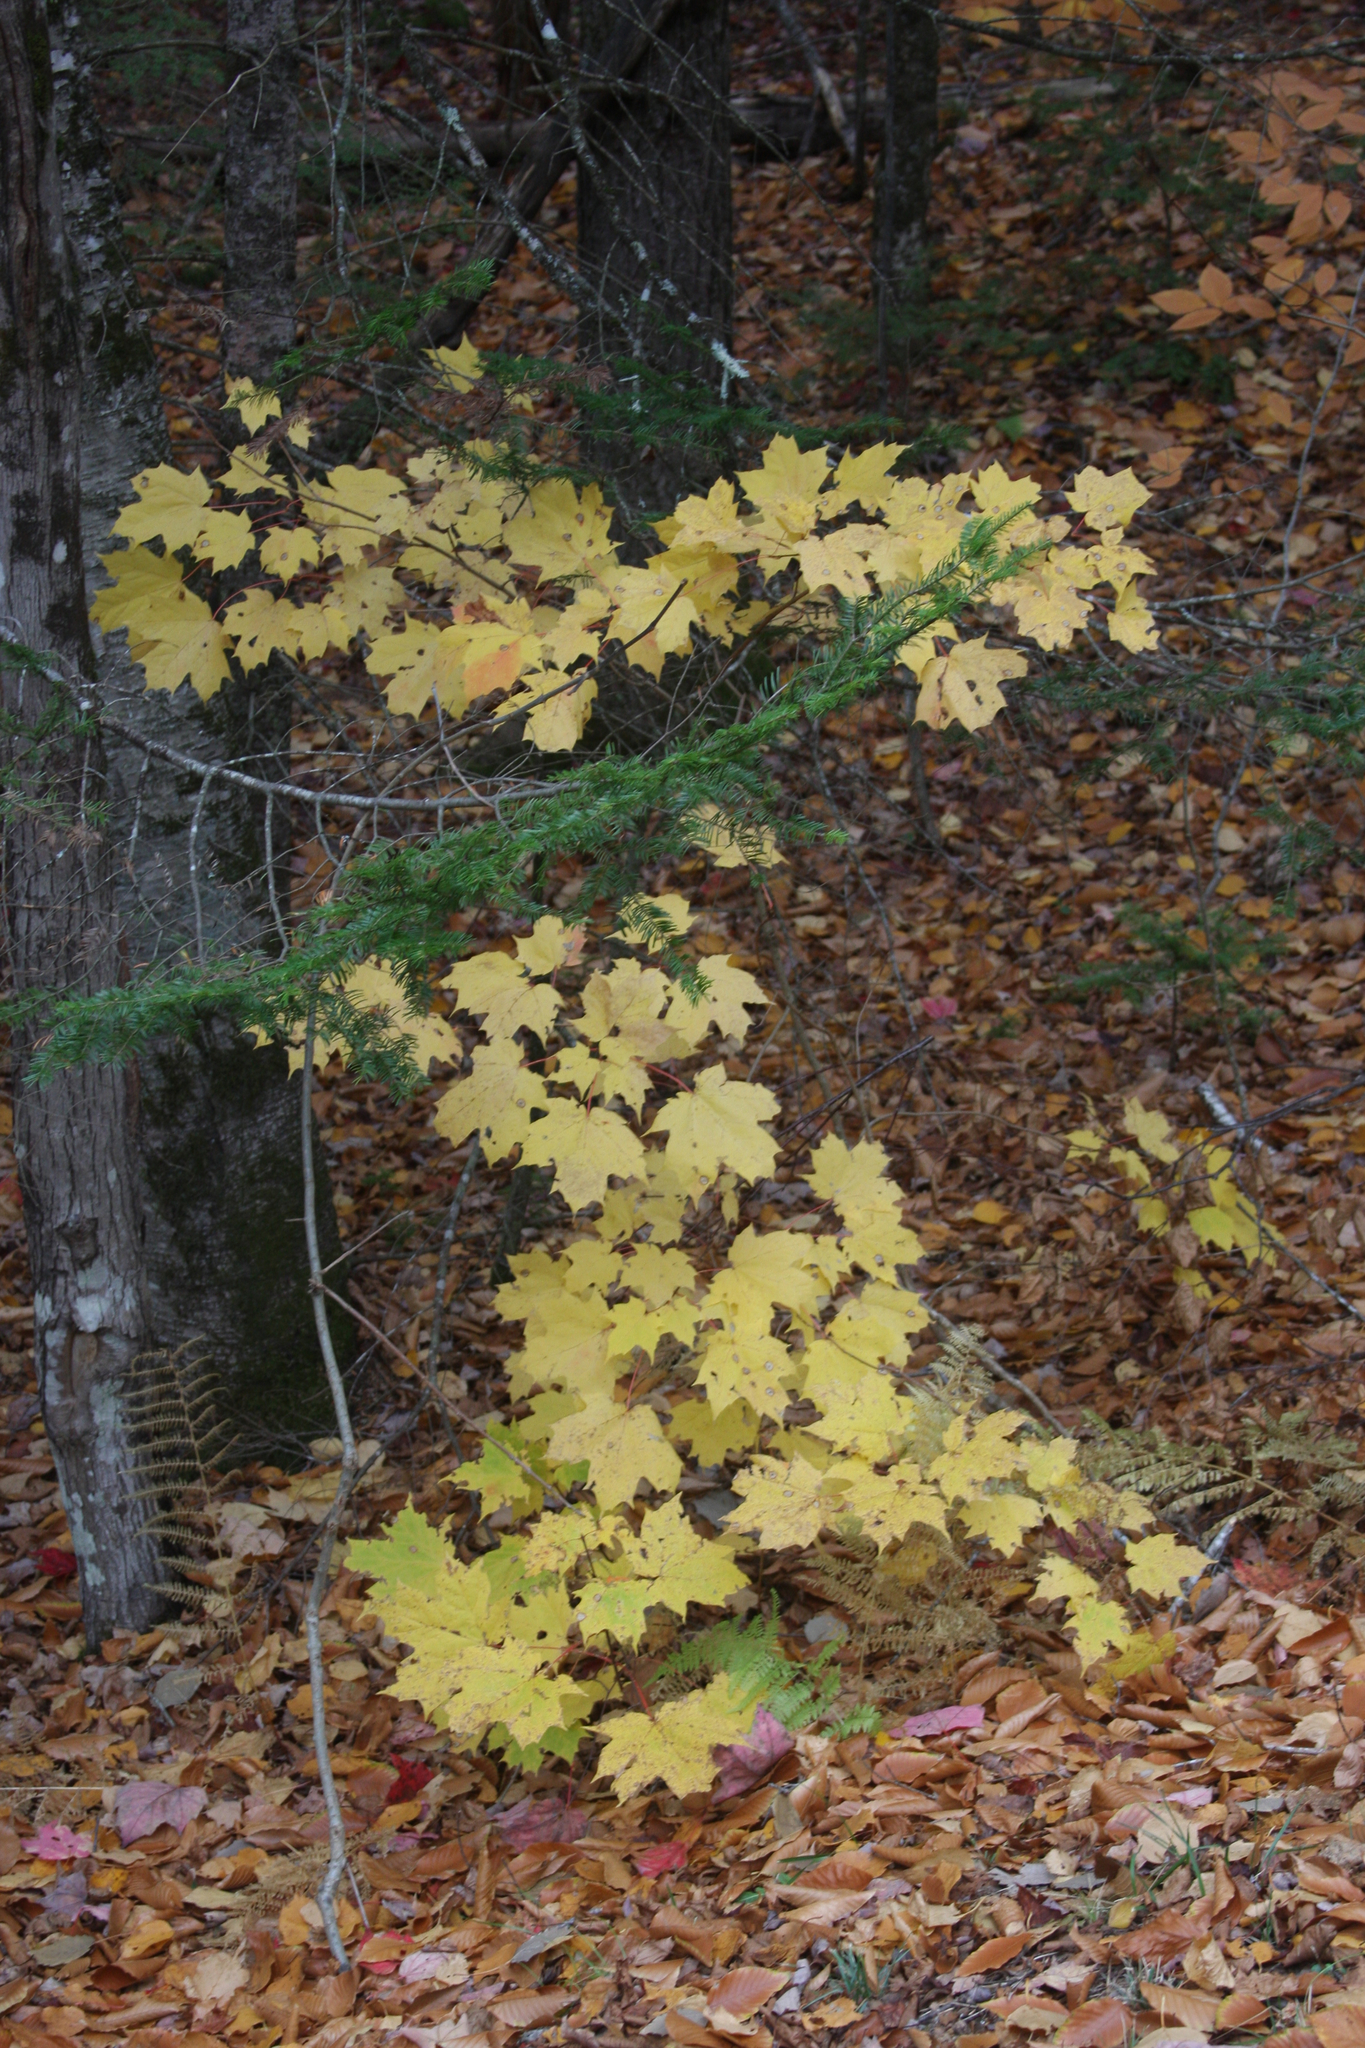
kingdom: Plantae
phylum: Tracheophyta
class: Magnoliopsida
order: Sapindales
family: Sapindaceae
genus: Acer
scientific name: Acer saccharum
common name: Sugar maple
